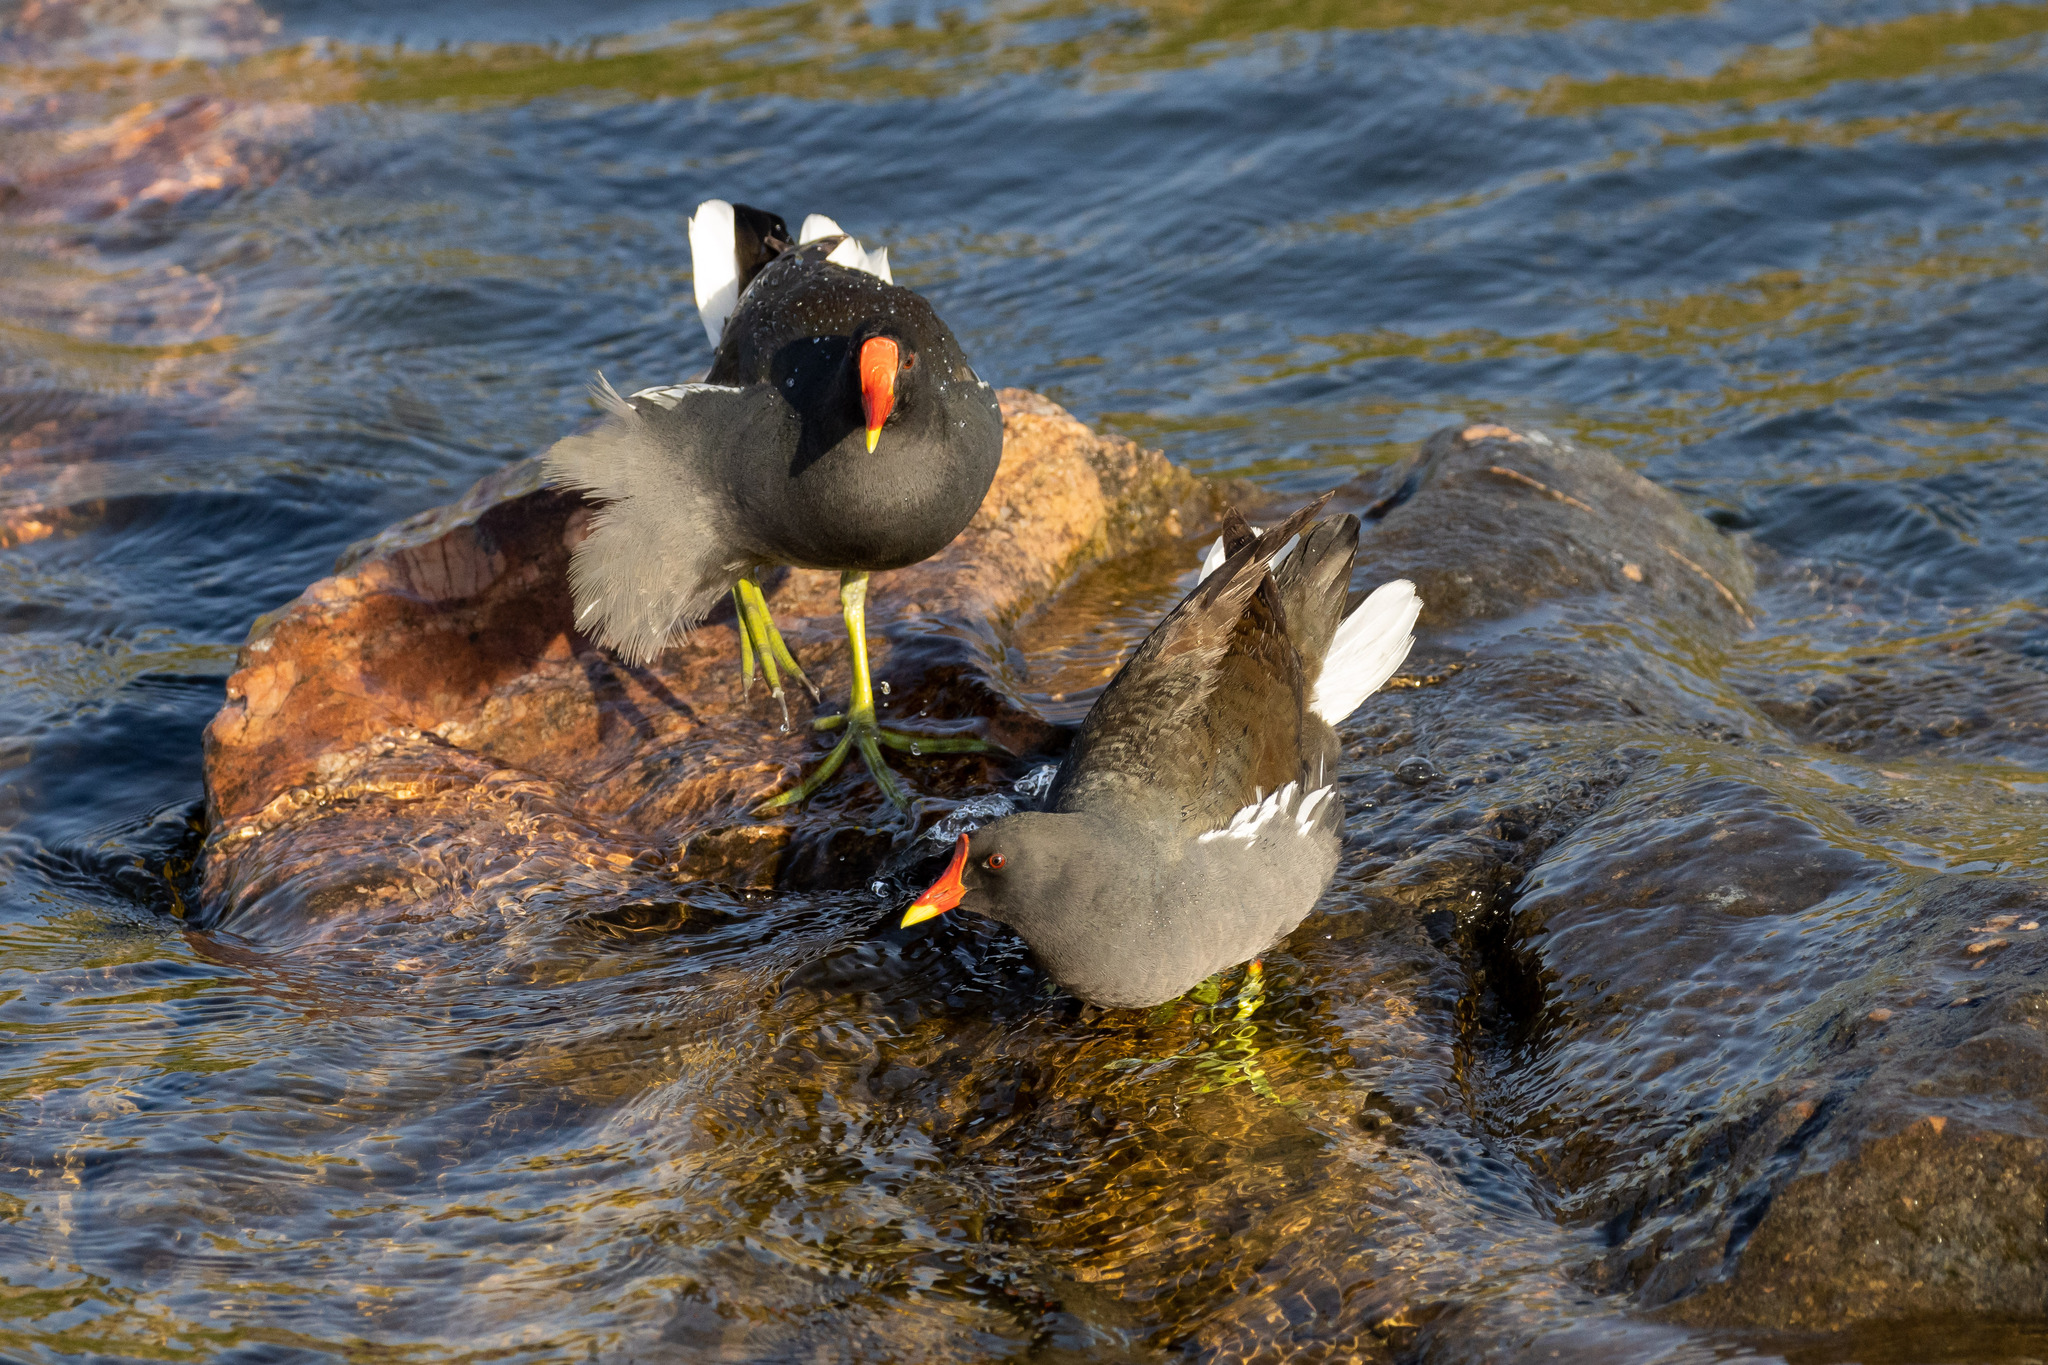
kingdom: Animalia
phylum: Chordata
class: Aves
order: Gruiformes
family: Rallidae
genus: Gallinula
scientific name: Gallinula chloropus
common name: Common moorhen
